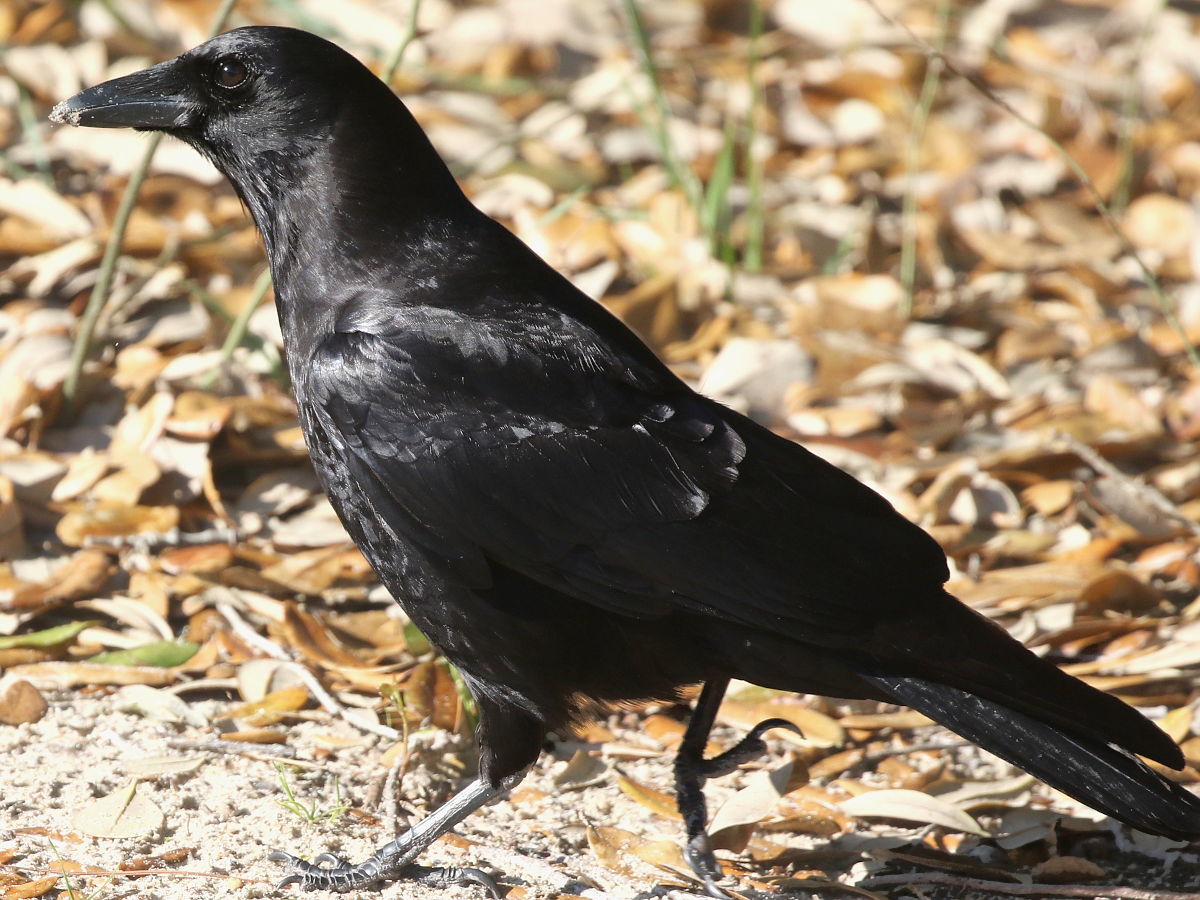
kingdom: Animalia
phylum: Chordata
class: Aves
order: Passeriformes
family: Corvidae
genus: Corvus
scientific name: Corvus brachyrhynchos
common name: American crow
